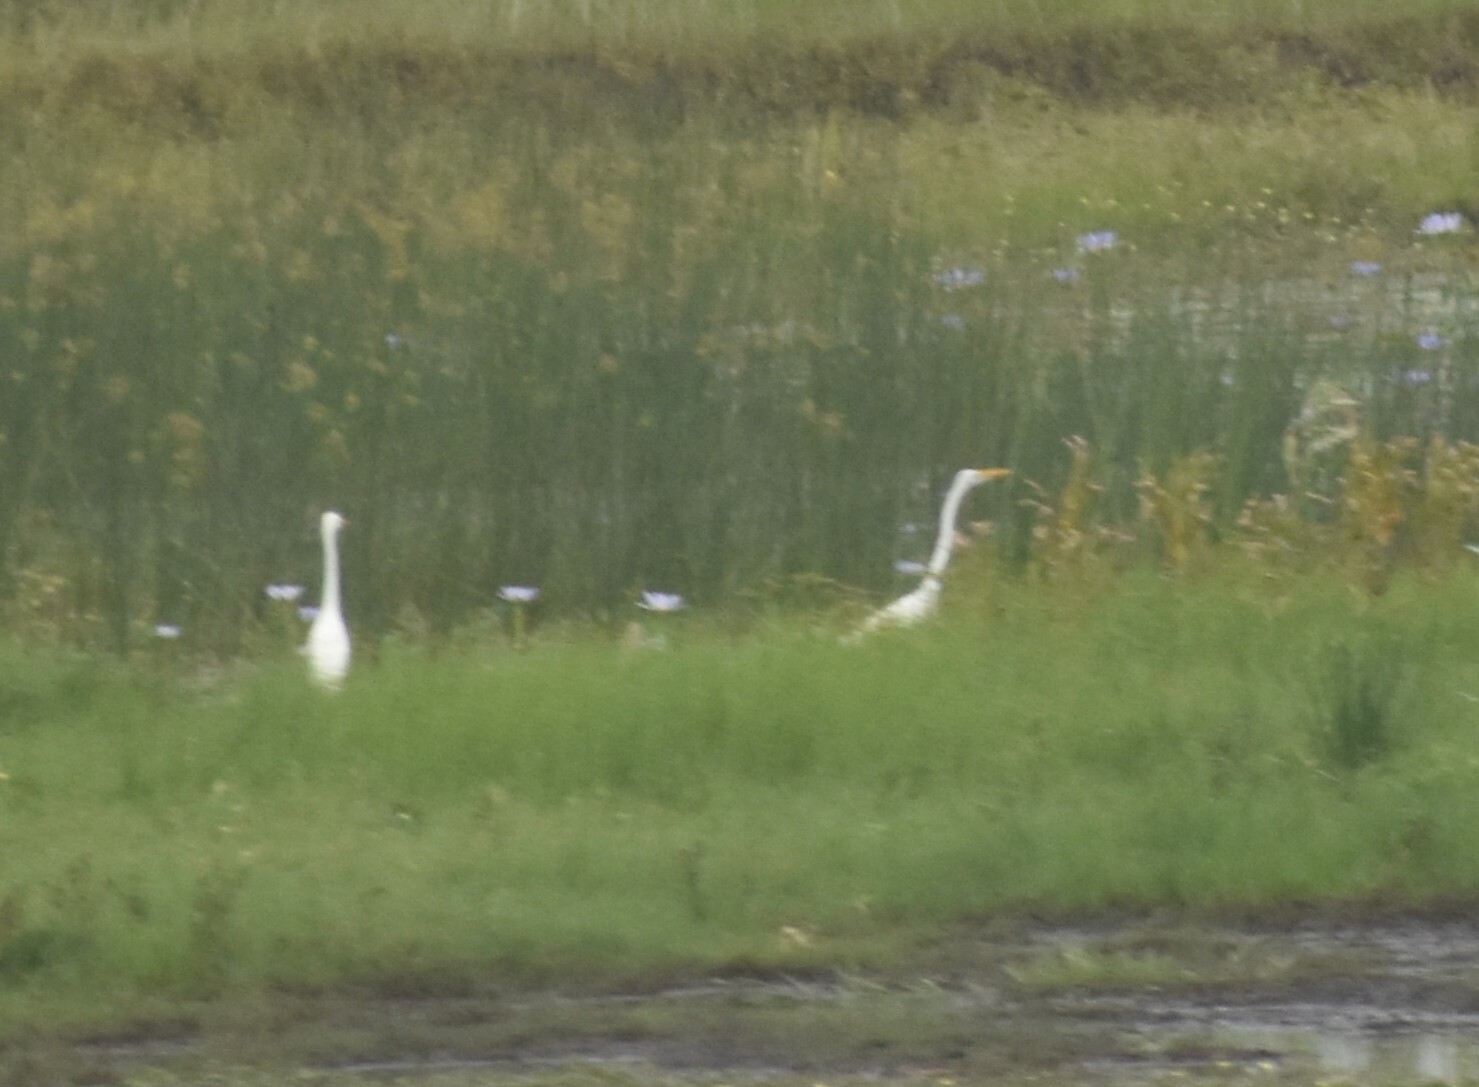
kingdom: Animalia
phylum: Chordata
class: Aves
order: Pelecaniformes
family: Ardeidae
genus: Ardea
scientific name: Ardea alba
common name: Great egret
